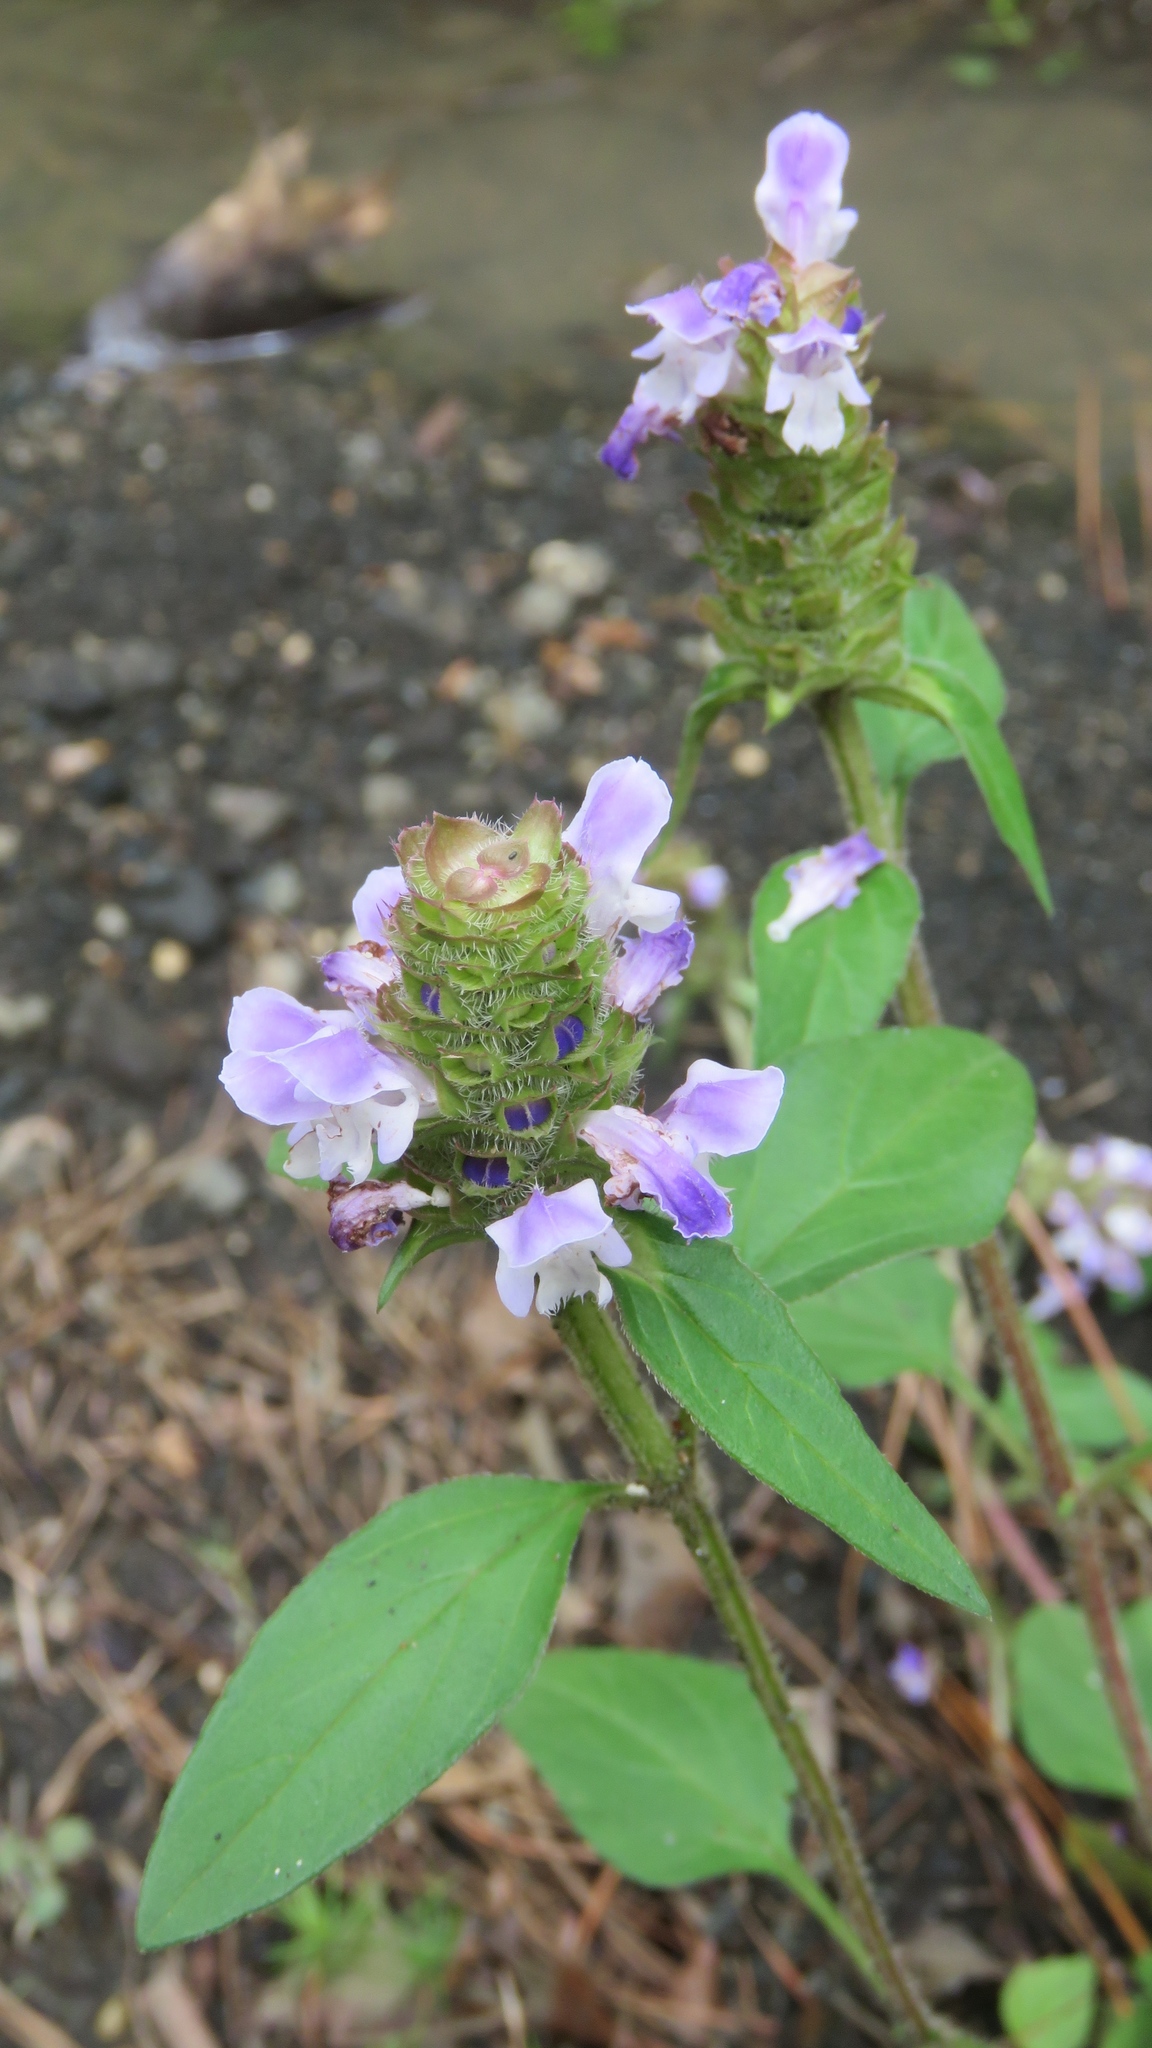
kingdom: Plantae
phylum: Tracheophyta
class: Magnoliopsida
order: Lamiales
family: Lamiaceae
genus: Prunella
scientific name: Prunella vulgaris
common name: Heal-all
